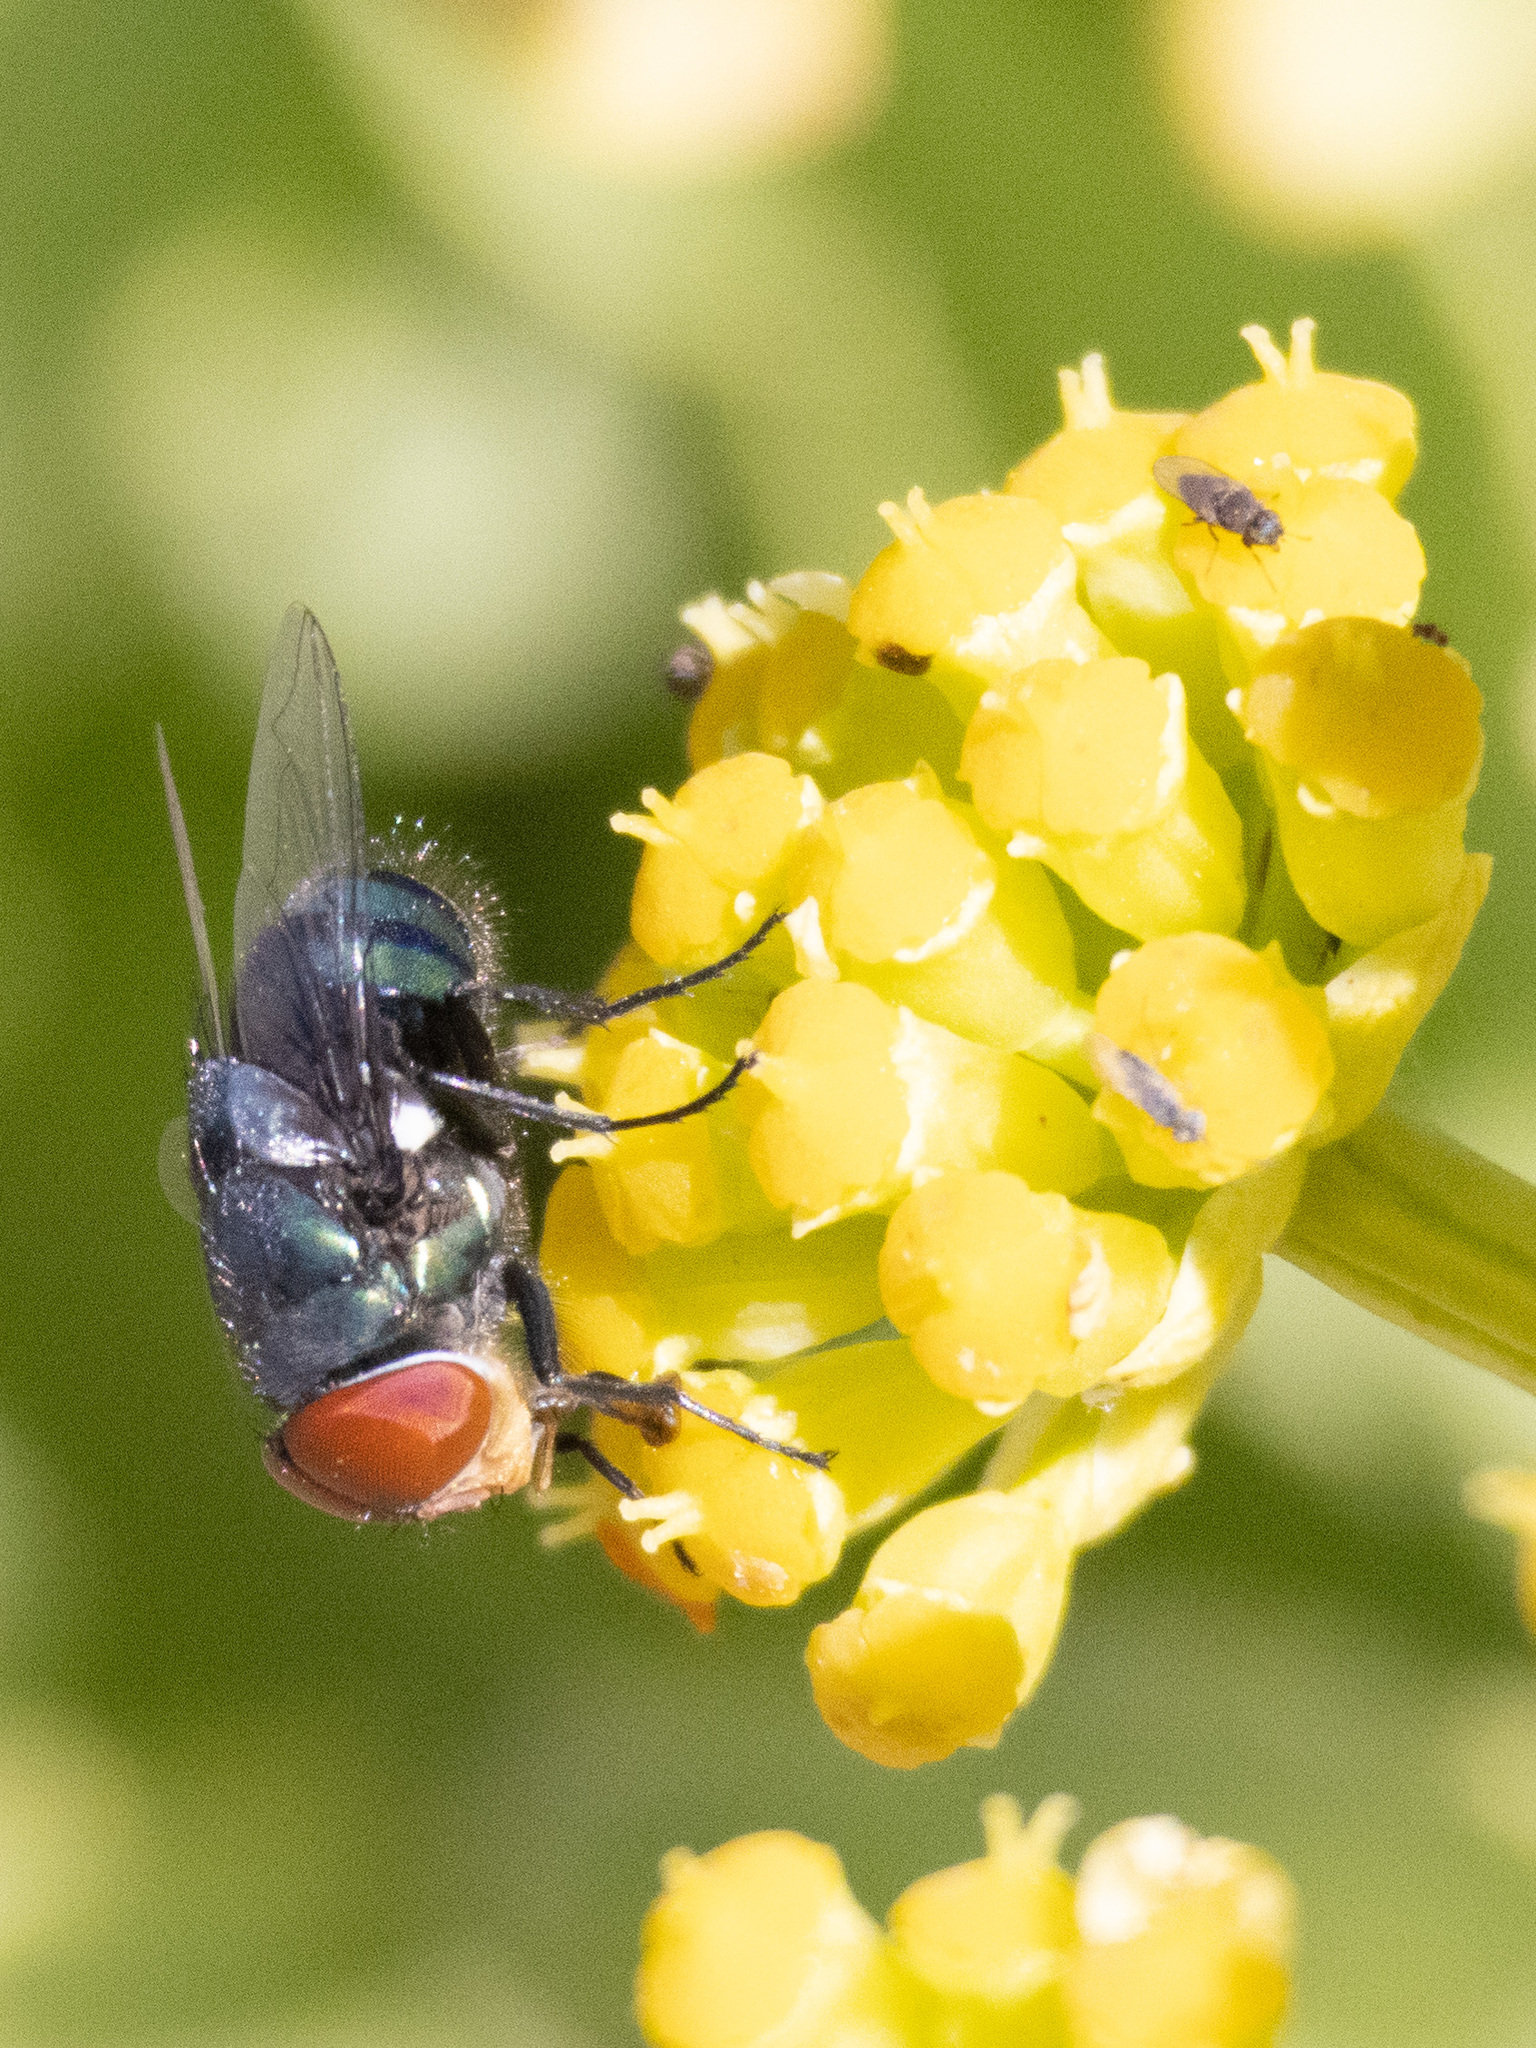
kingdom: Animalia
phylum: Arthropoda
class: Insecta
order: Diptera
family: Calliphoridae
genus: Chrysomya
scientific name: Chrysomya megacephala
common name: Blow fly
